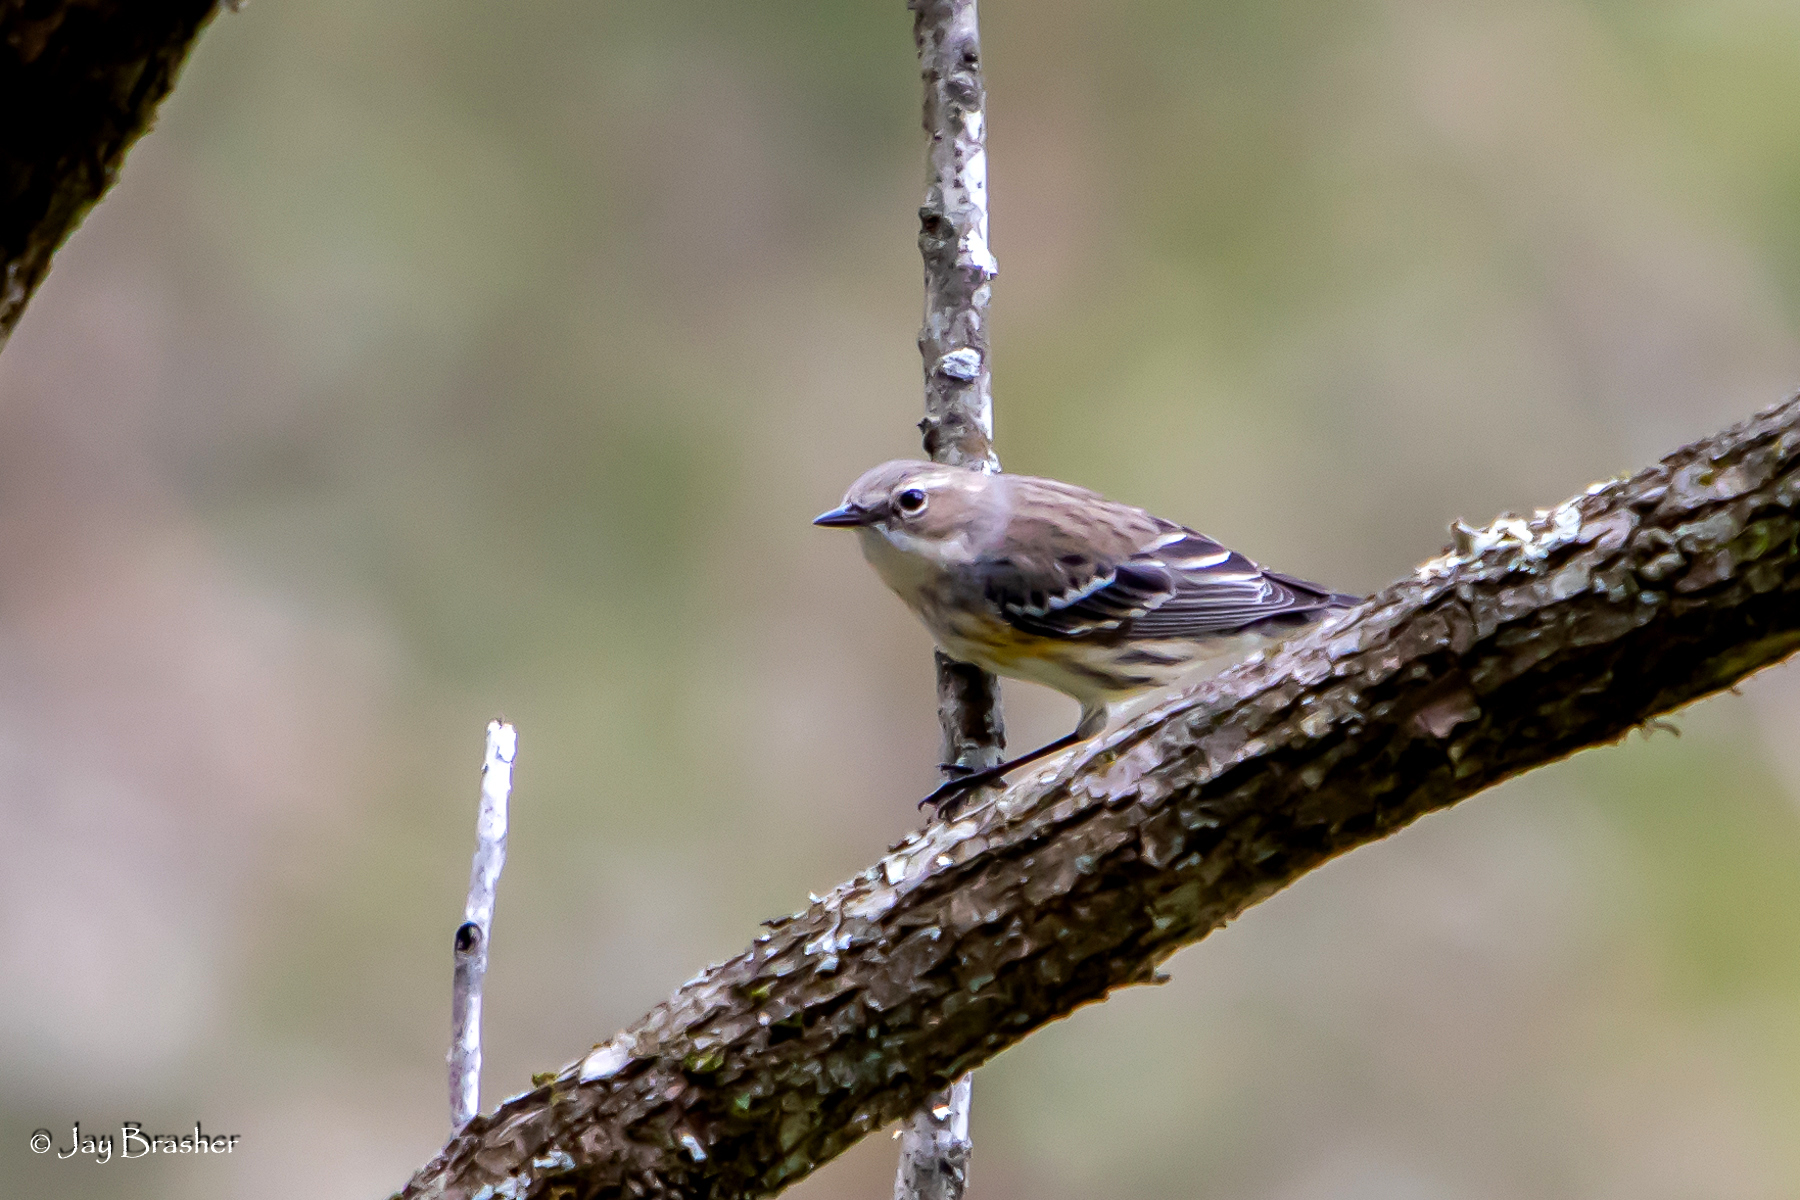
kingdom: Animalia
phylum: Chordata
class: Aves
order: Passeriformes
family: Parulidae
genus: Setophaga
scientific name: Setophaga coronata
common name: Myrtle warbler
